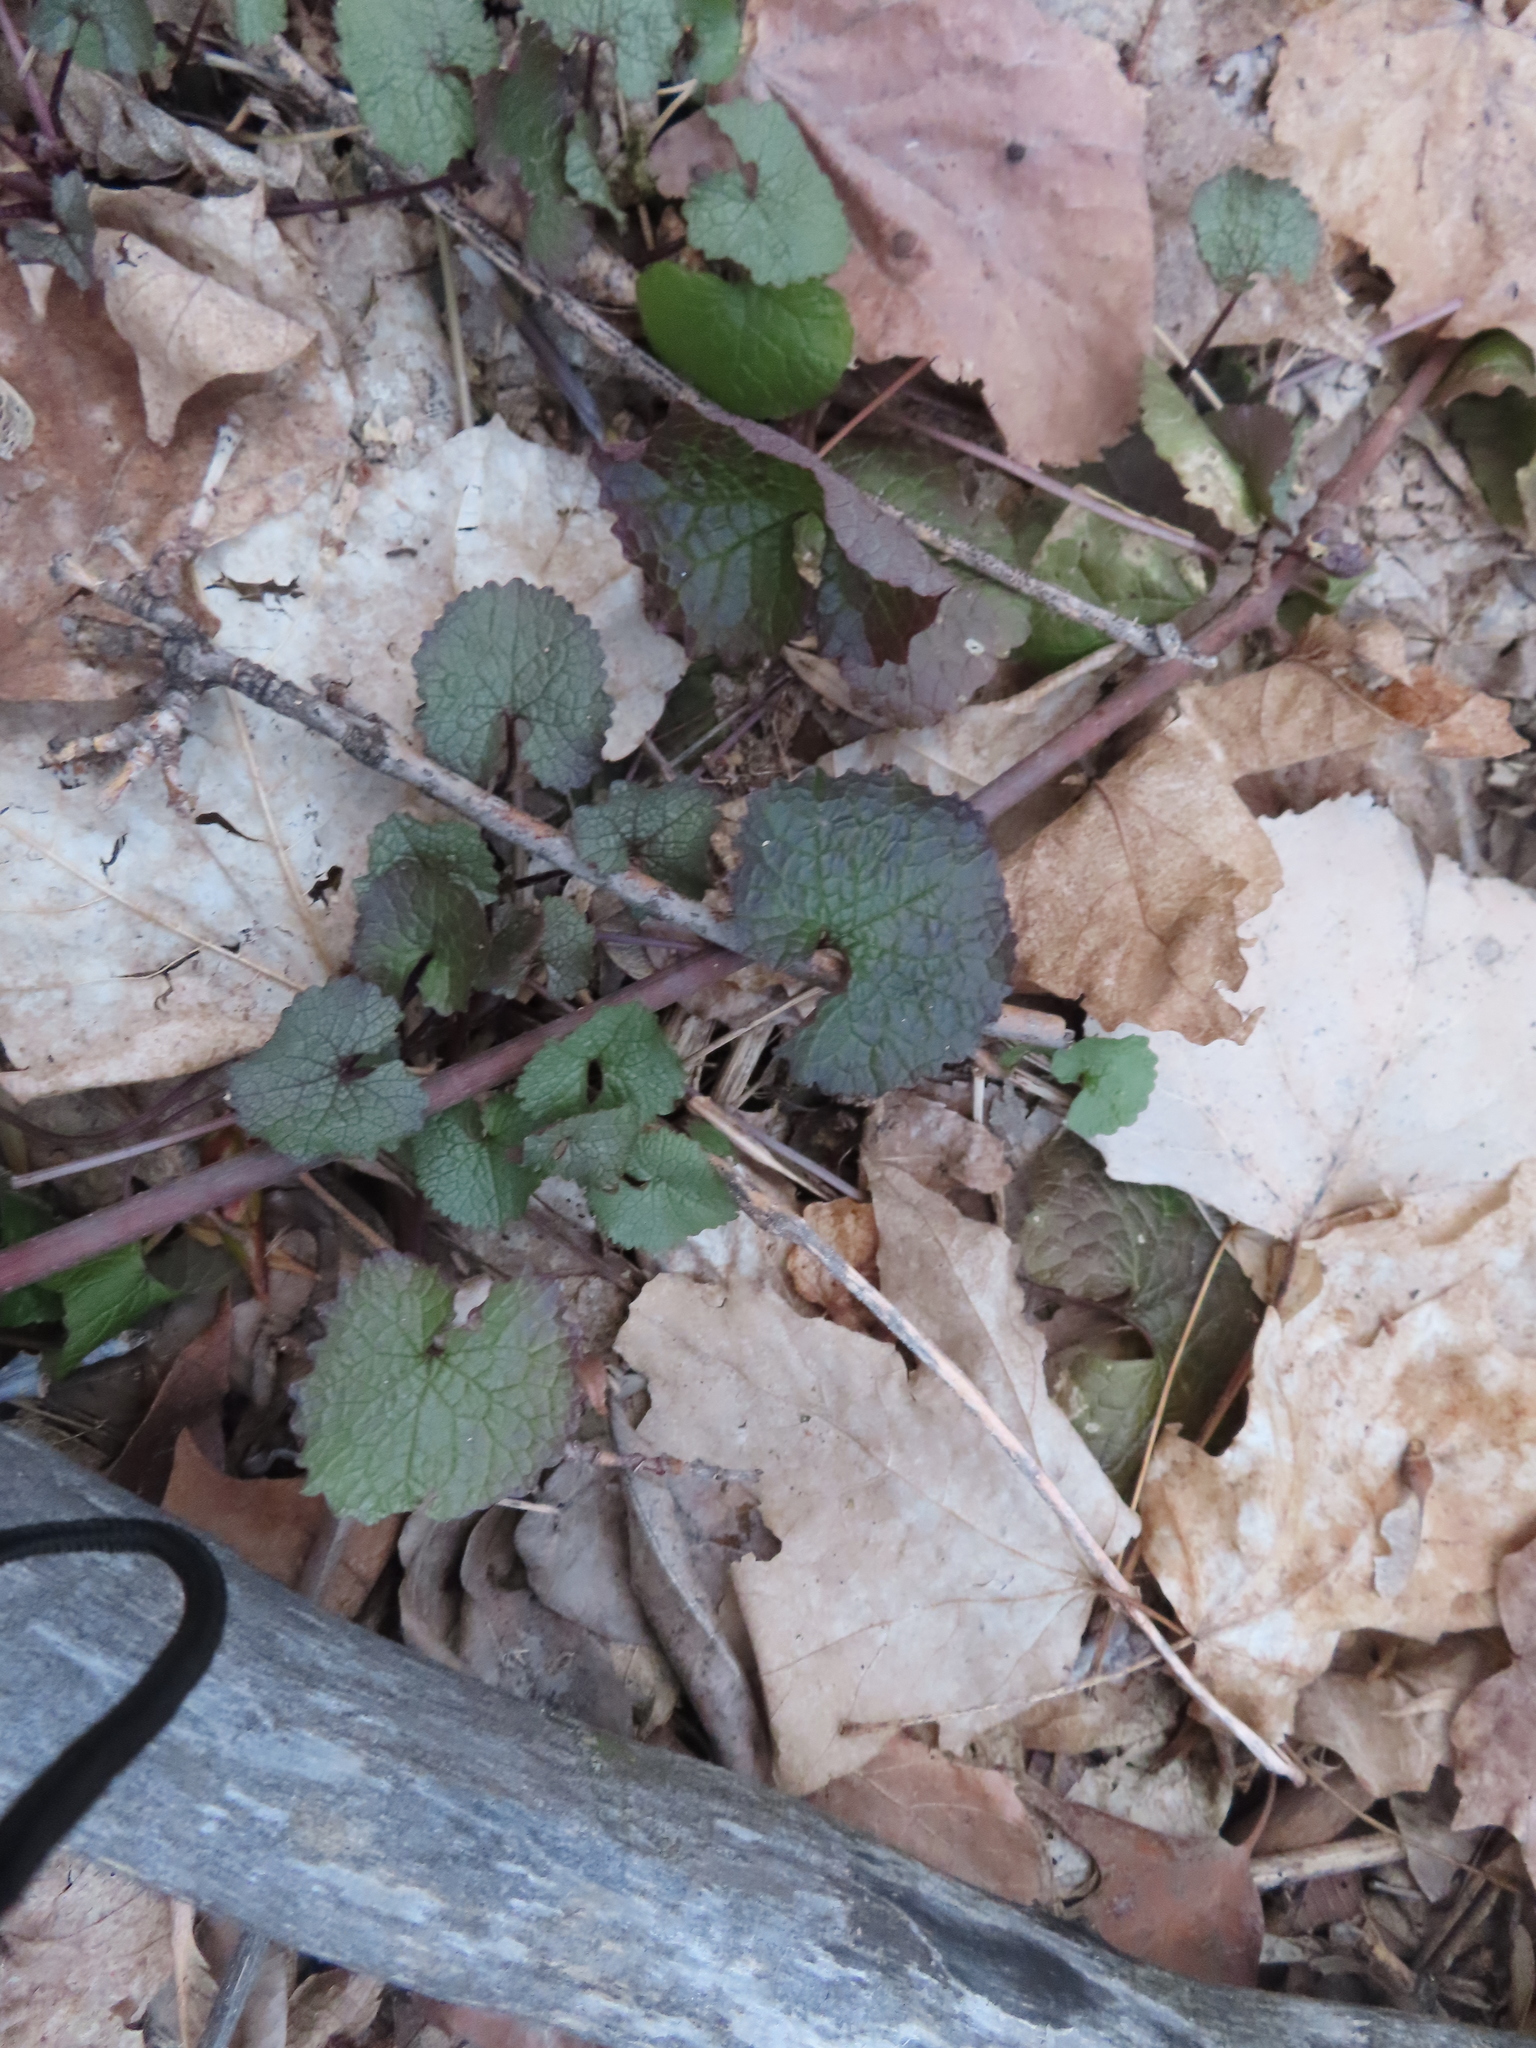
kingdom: Plantae
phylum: Tracheophyta
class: Magnoliopsida
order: Brassicales
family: Brassicaceae
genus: Alliaria
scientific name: Alliaria petiolata
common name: Garlic mustard
